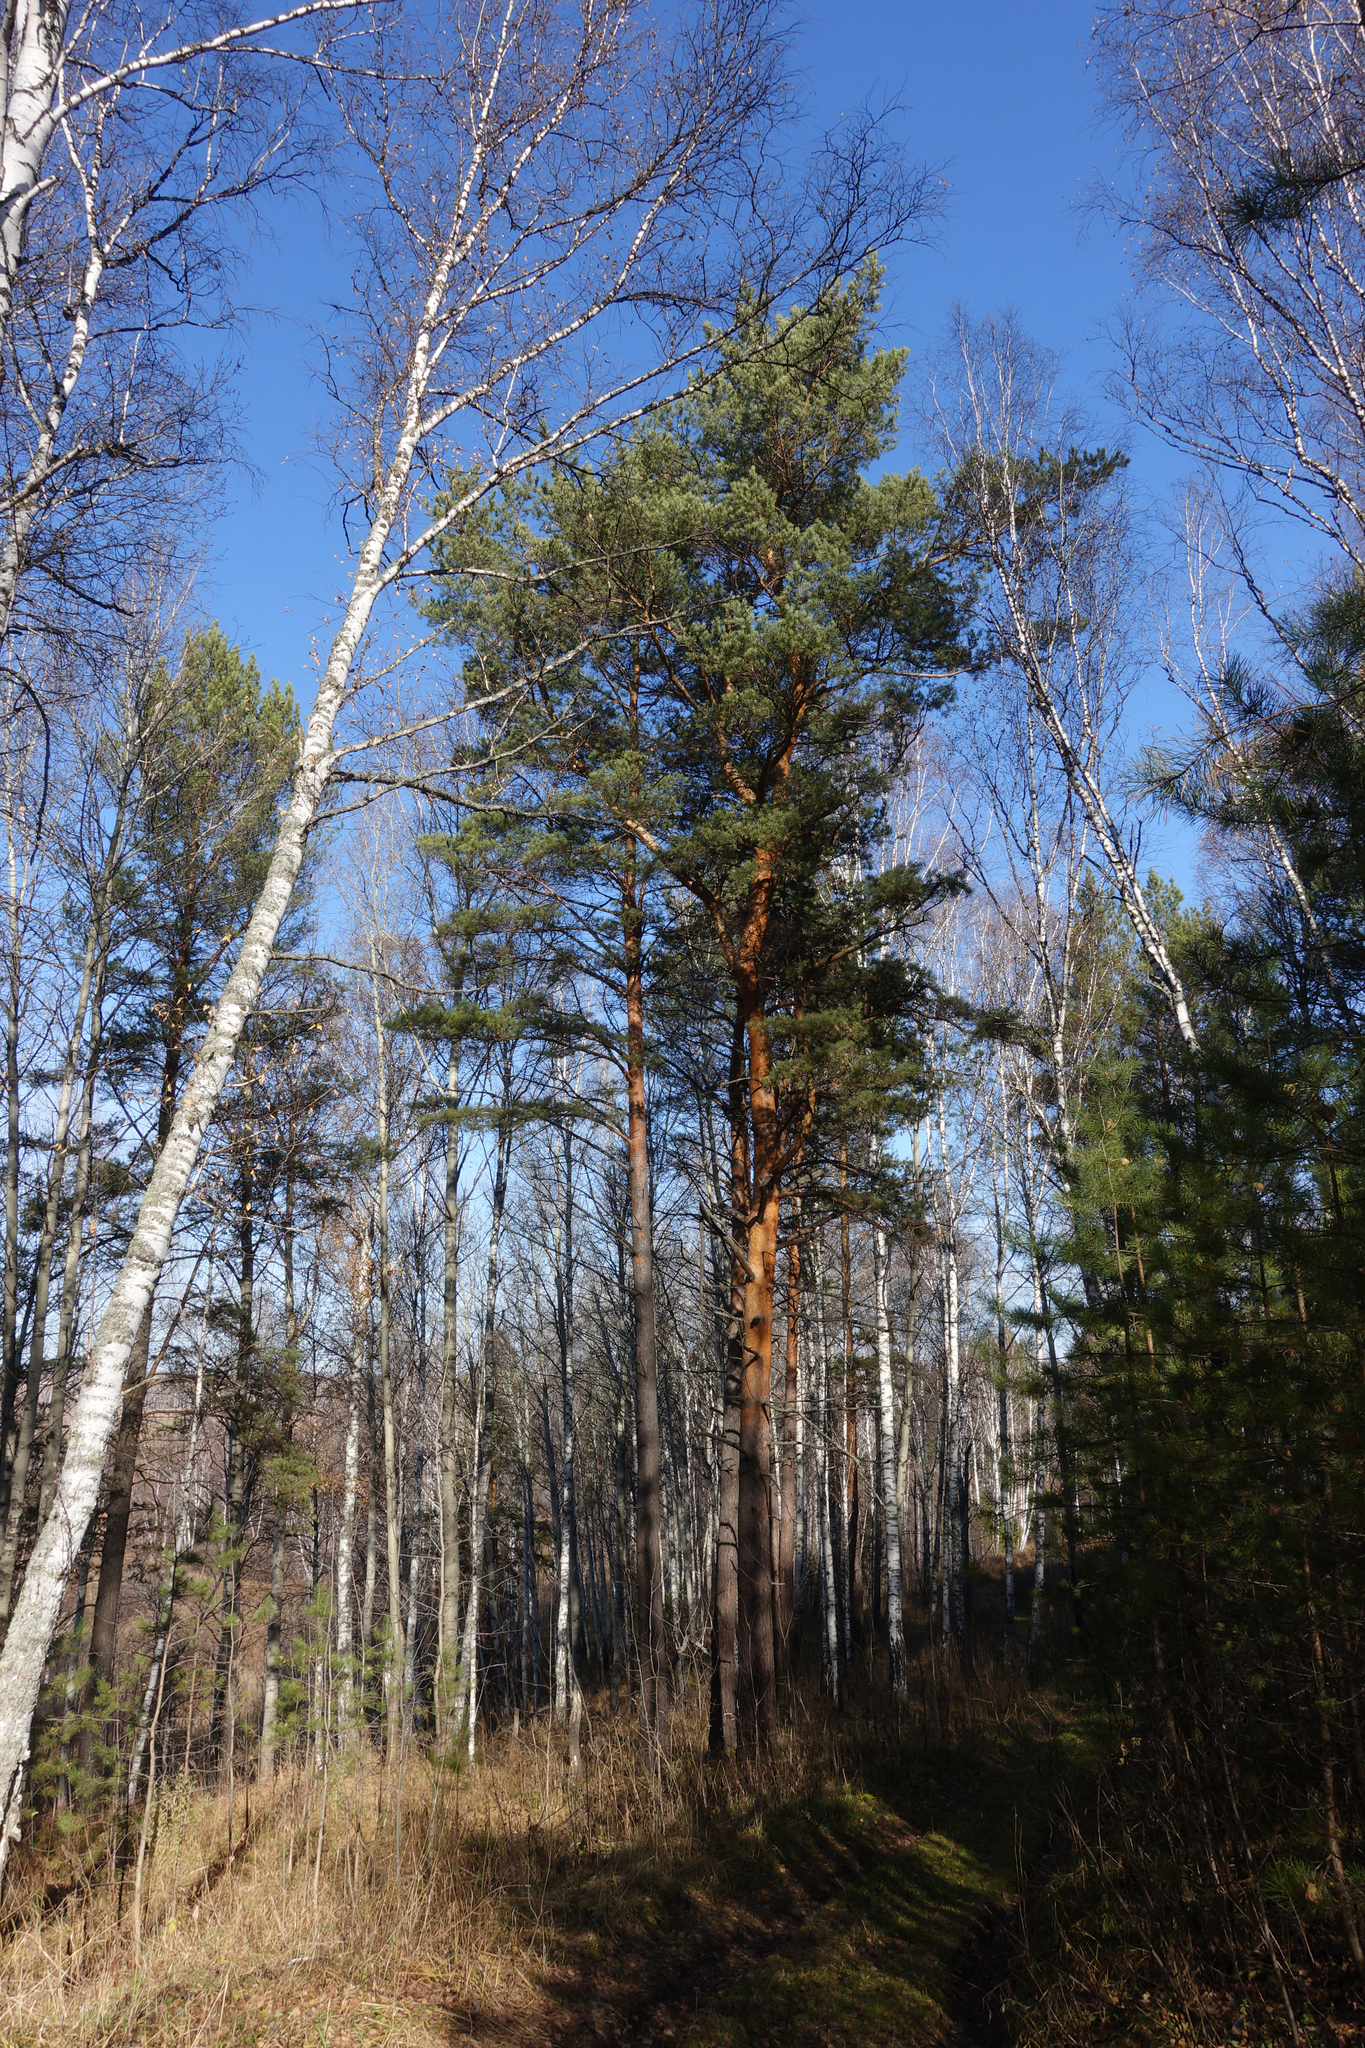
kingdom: Plantae
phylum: Tracheophyta
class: Pinopsida
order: Pinales
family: Pinaceae
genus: Pinus
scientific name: Pinus sylvestris
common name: Scots pine
